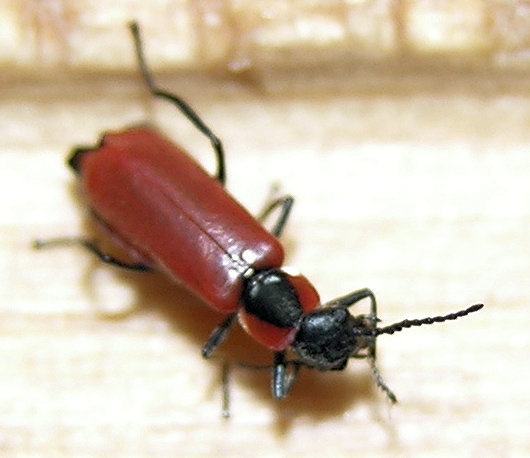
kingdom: Animalia
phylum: Arthropoda
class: Insecta
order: Coleoptera
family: Melyridae
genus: Anthocomus
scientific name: Anthocomus rufus
